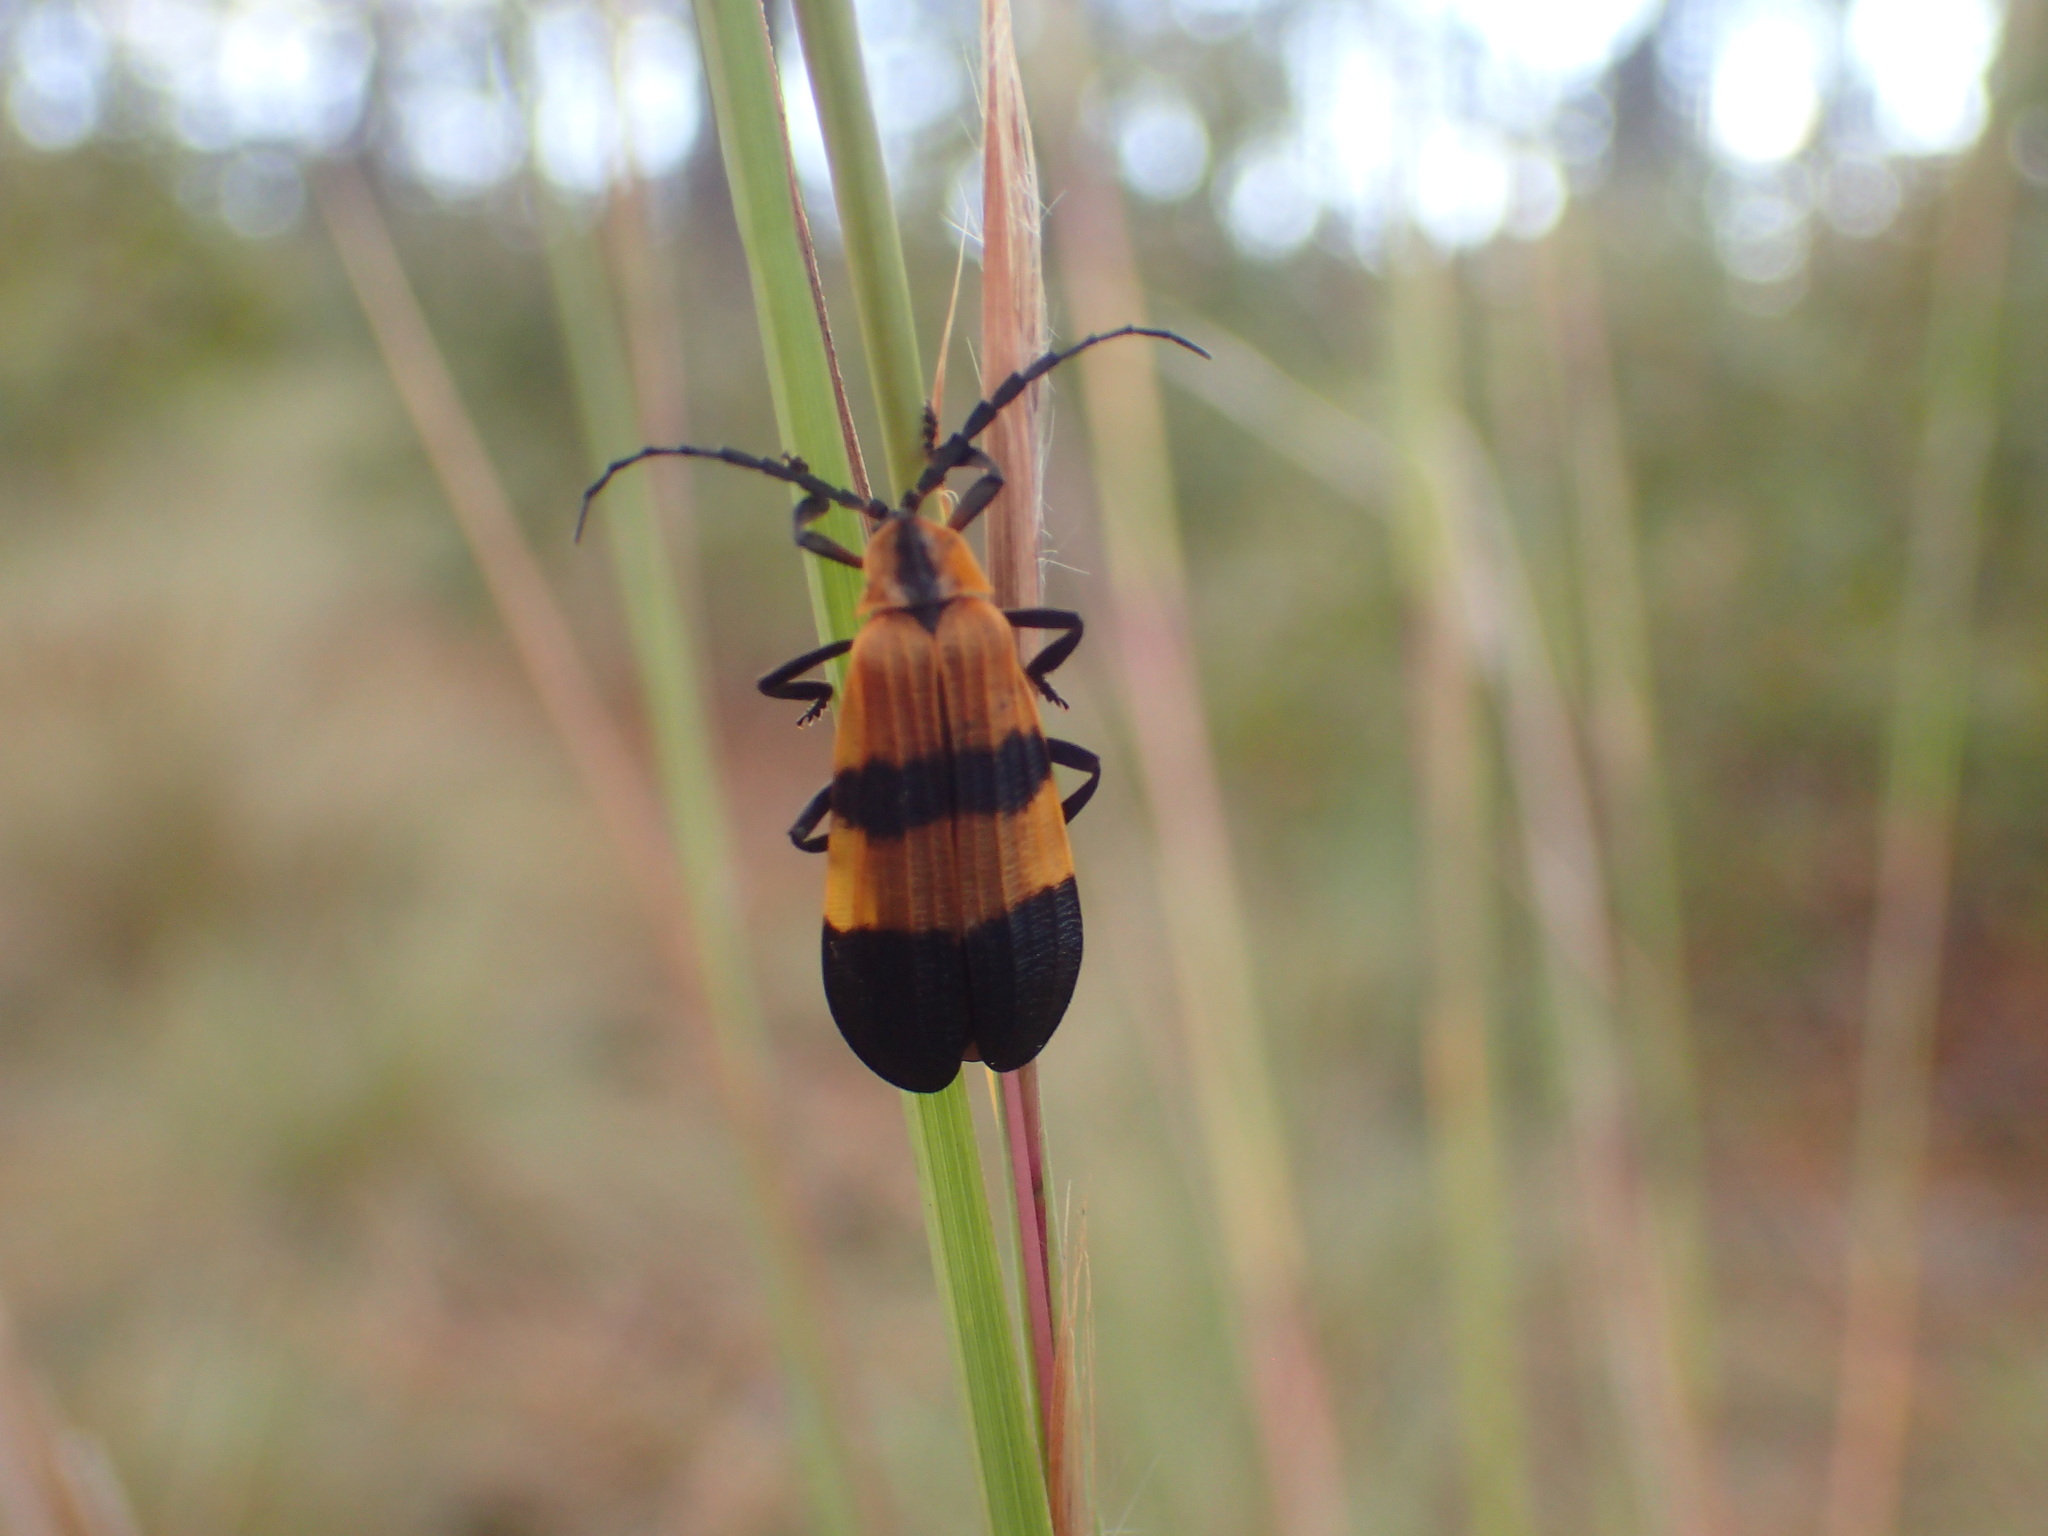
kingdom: Animalia
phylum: Arthropoda
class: Insecta
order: Coleoptera
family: Lycidae
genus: Calopteron
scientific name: Calopteron reticulatum
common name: Banded net-winged beetle
